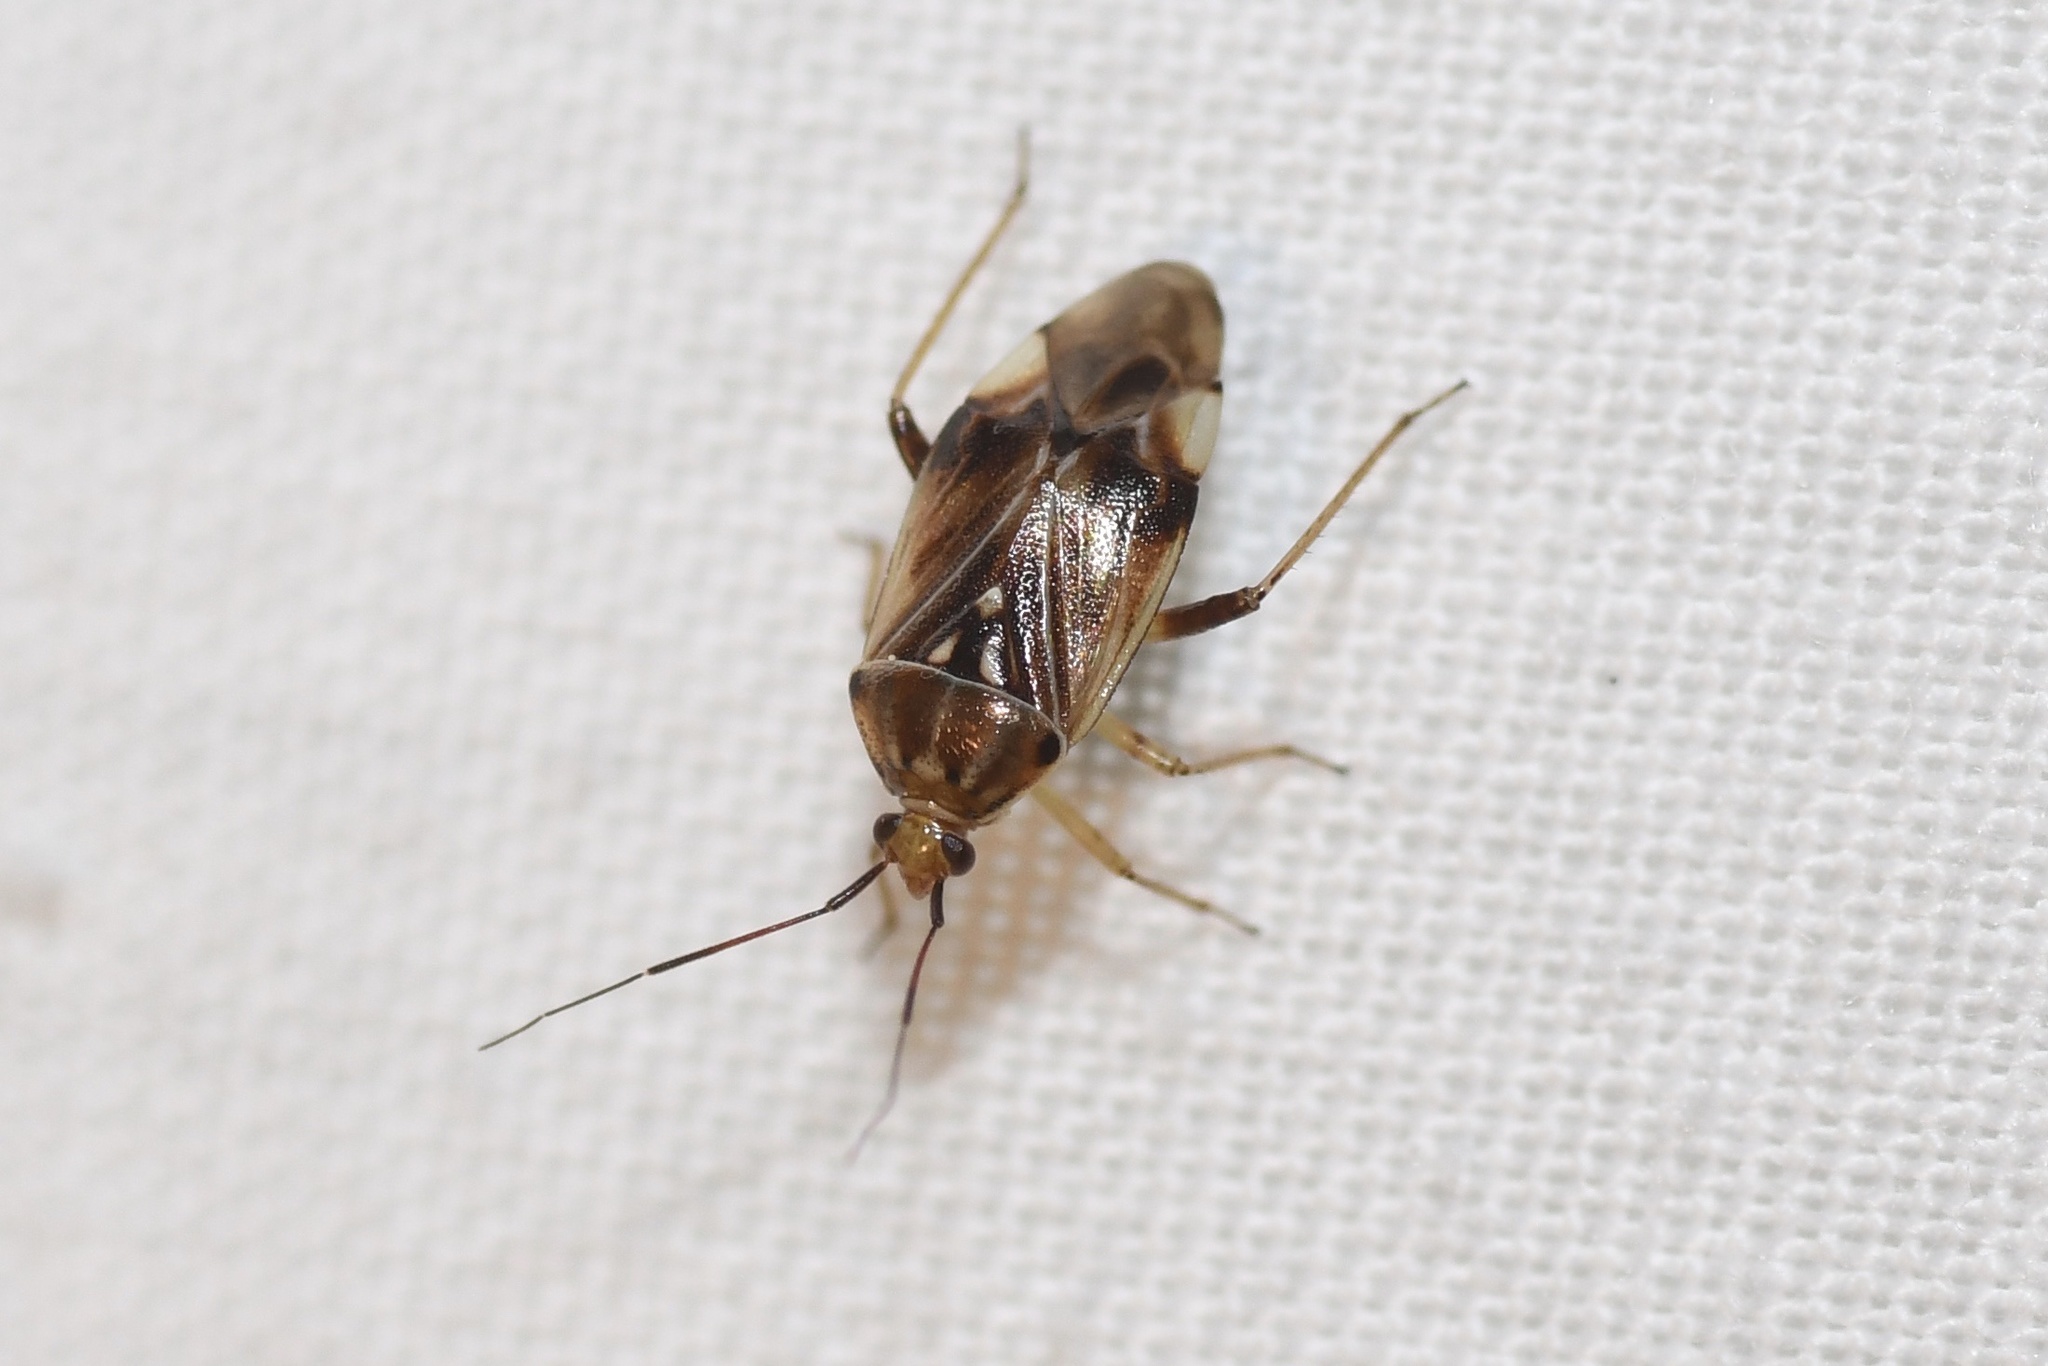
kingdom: Animalia
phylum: Arthropoda
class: Insecta
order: Hemiptera
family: Miridae
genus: Lygus
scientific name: Lygus lineolaris
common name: North american tarnished plant bug
